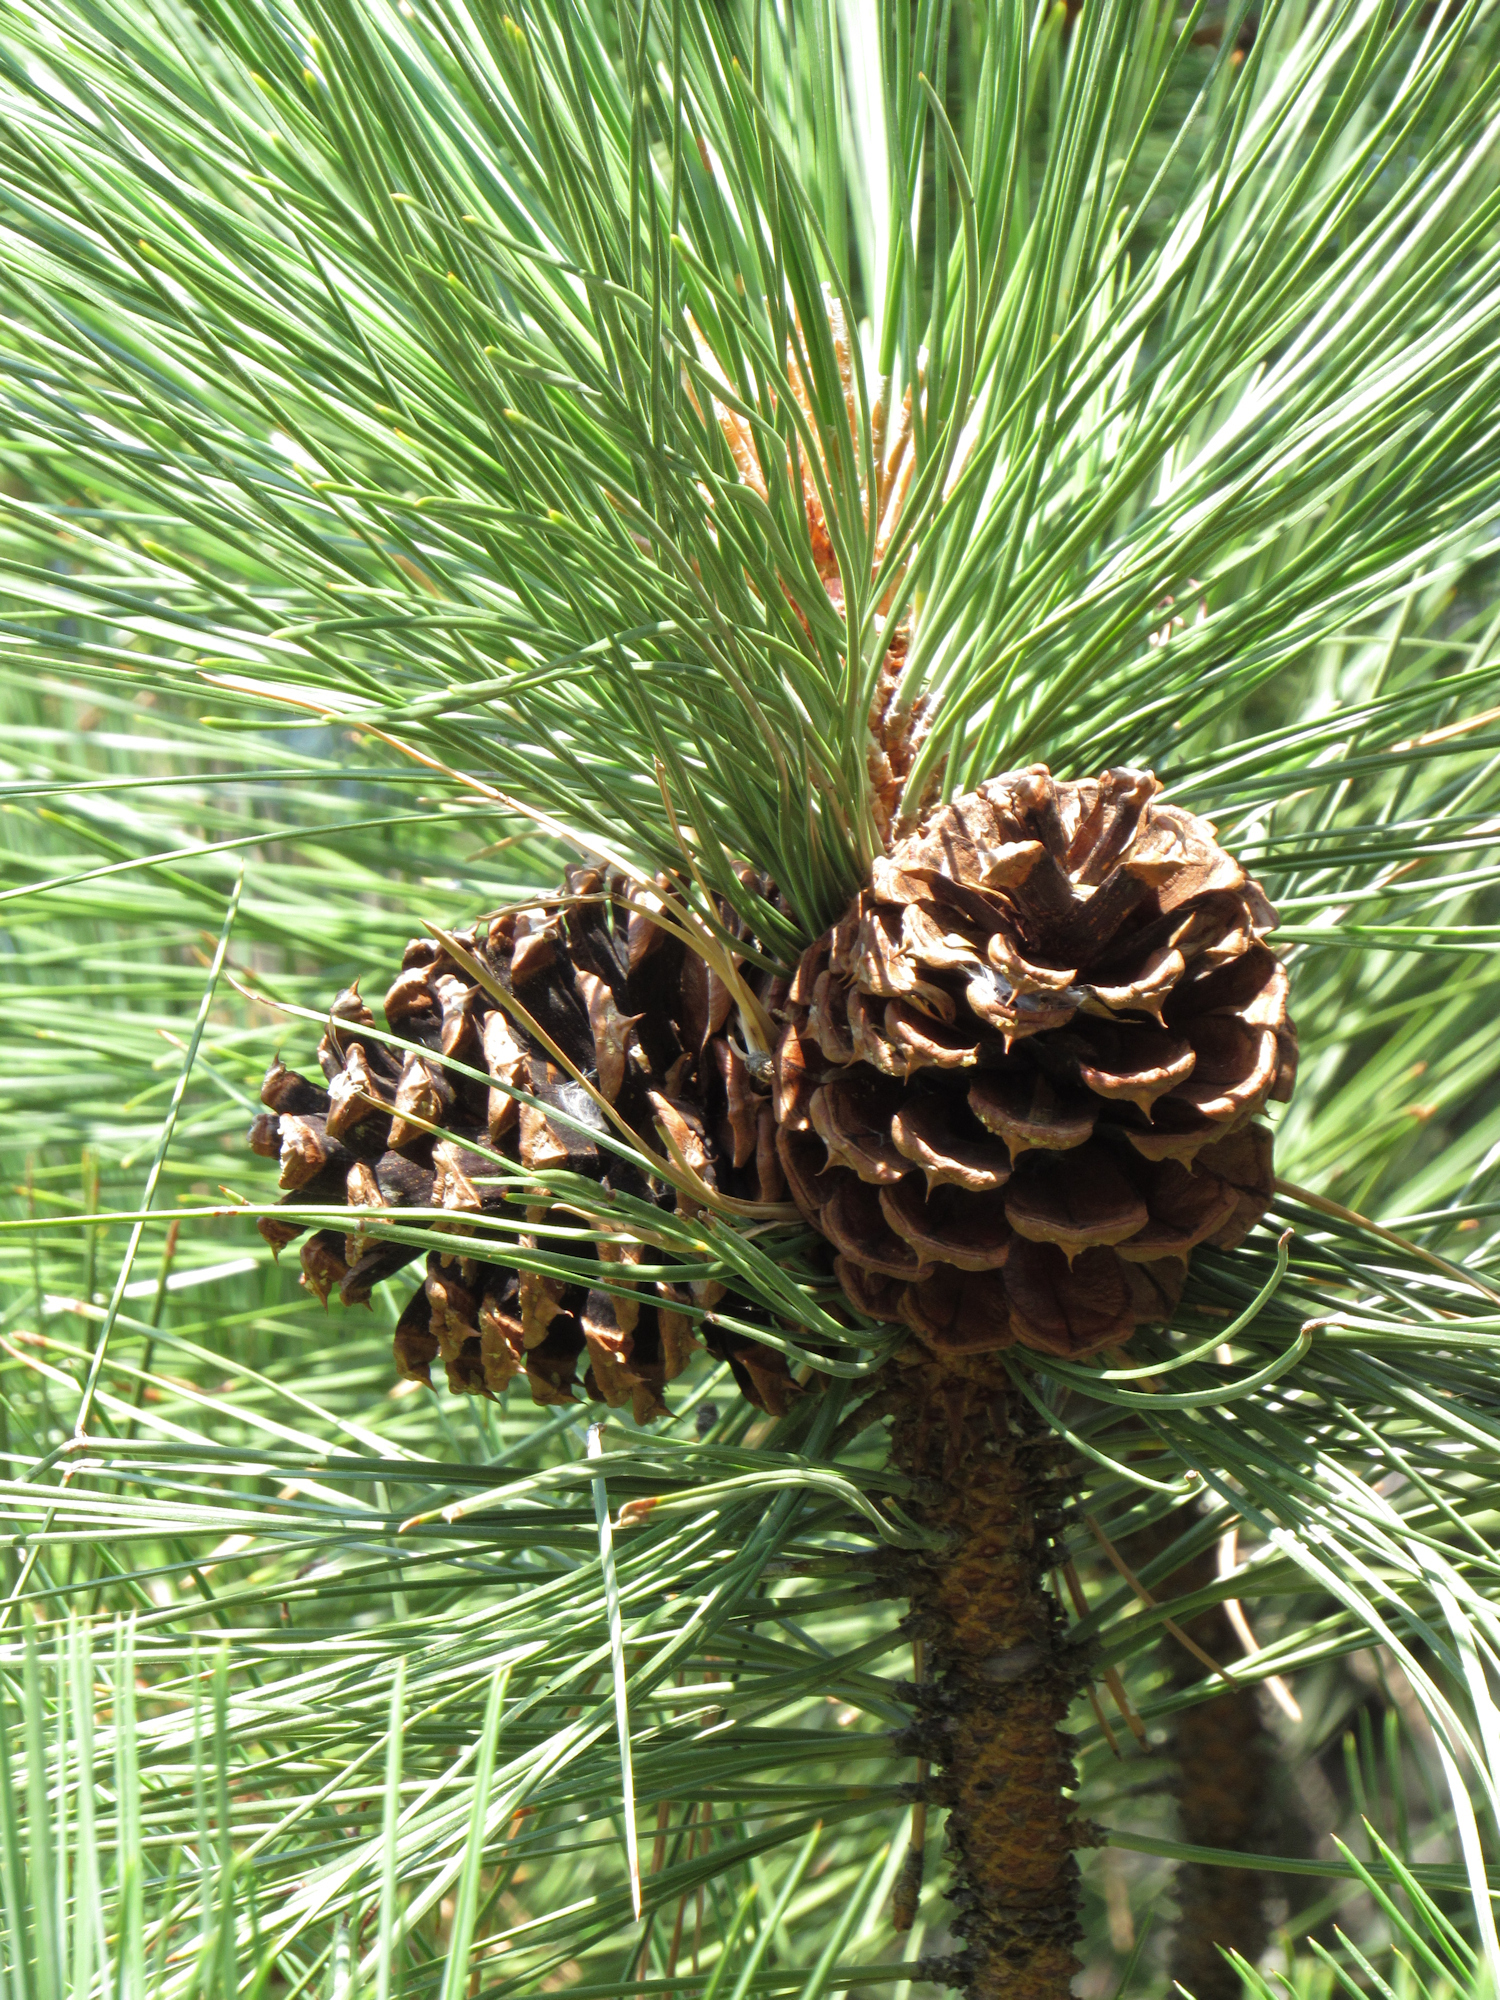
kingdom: Plantae
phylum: Tracheophyta
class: Pinopsida
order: Pinales
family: Pinaceae
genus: Pinus
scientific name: Pinus ponderosa
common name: Western yellow-pine
